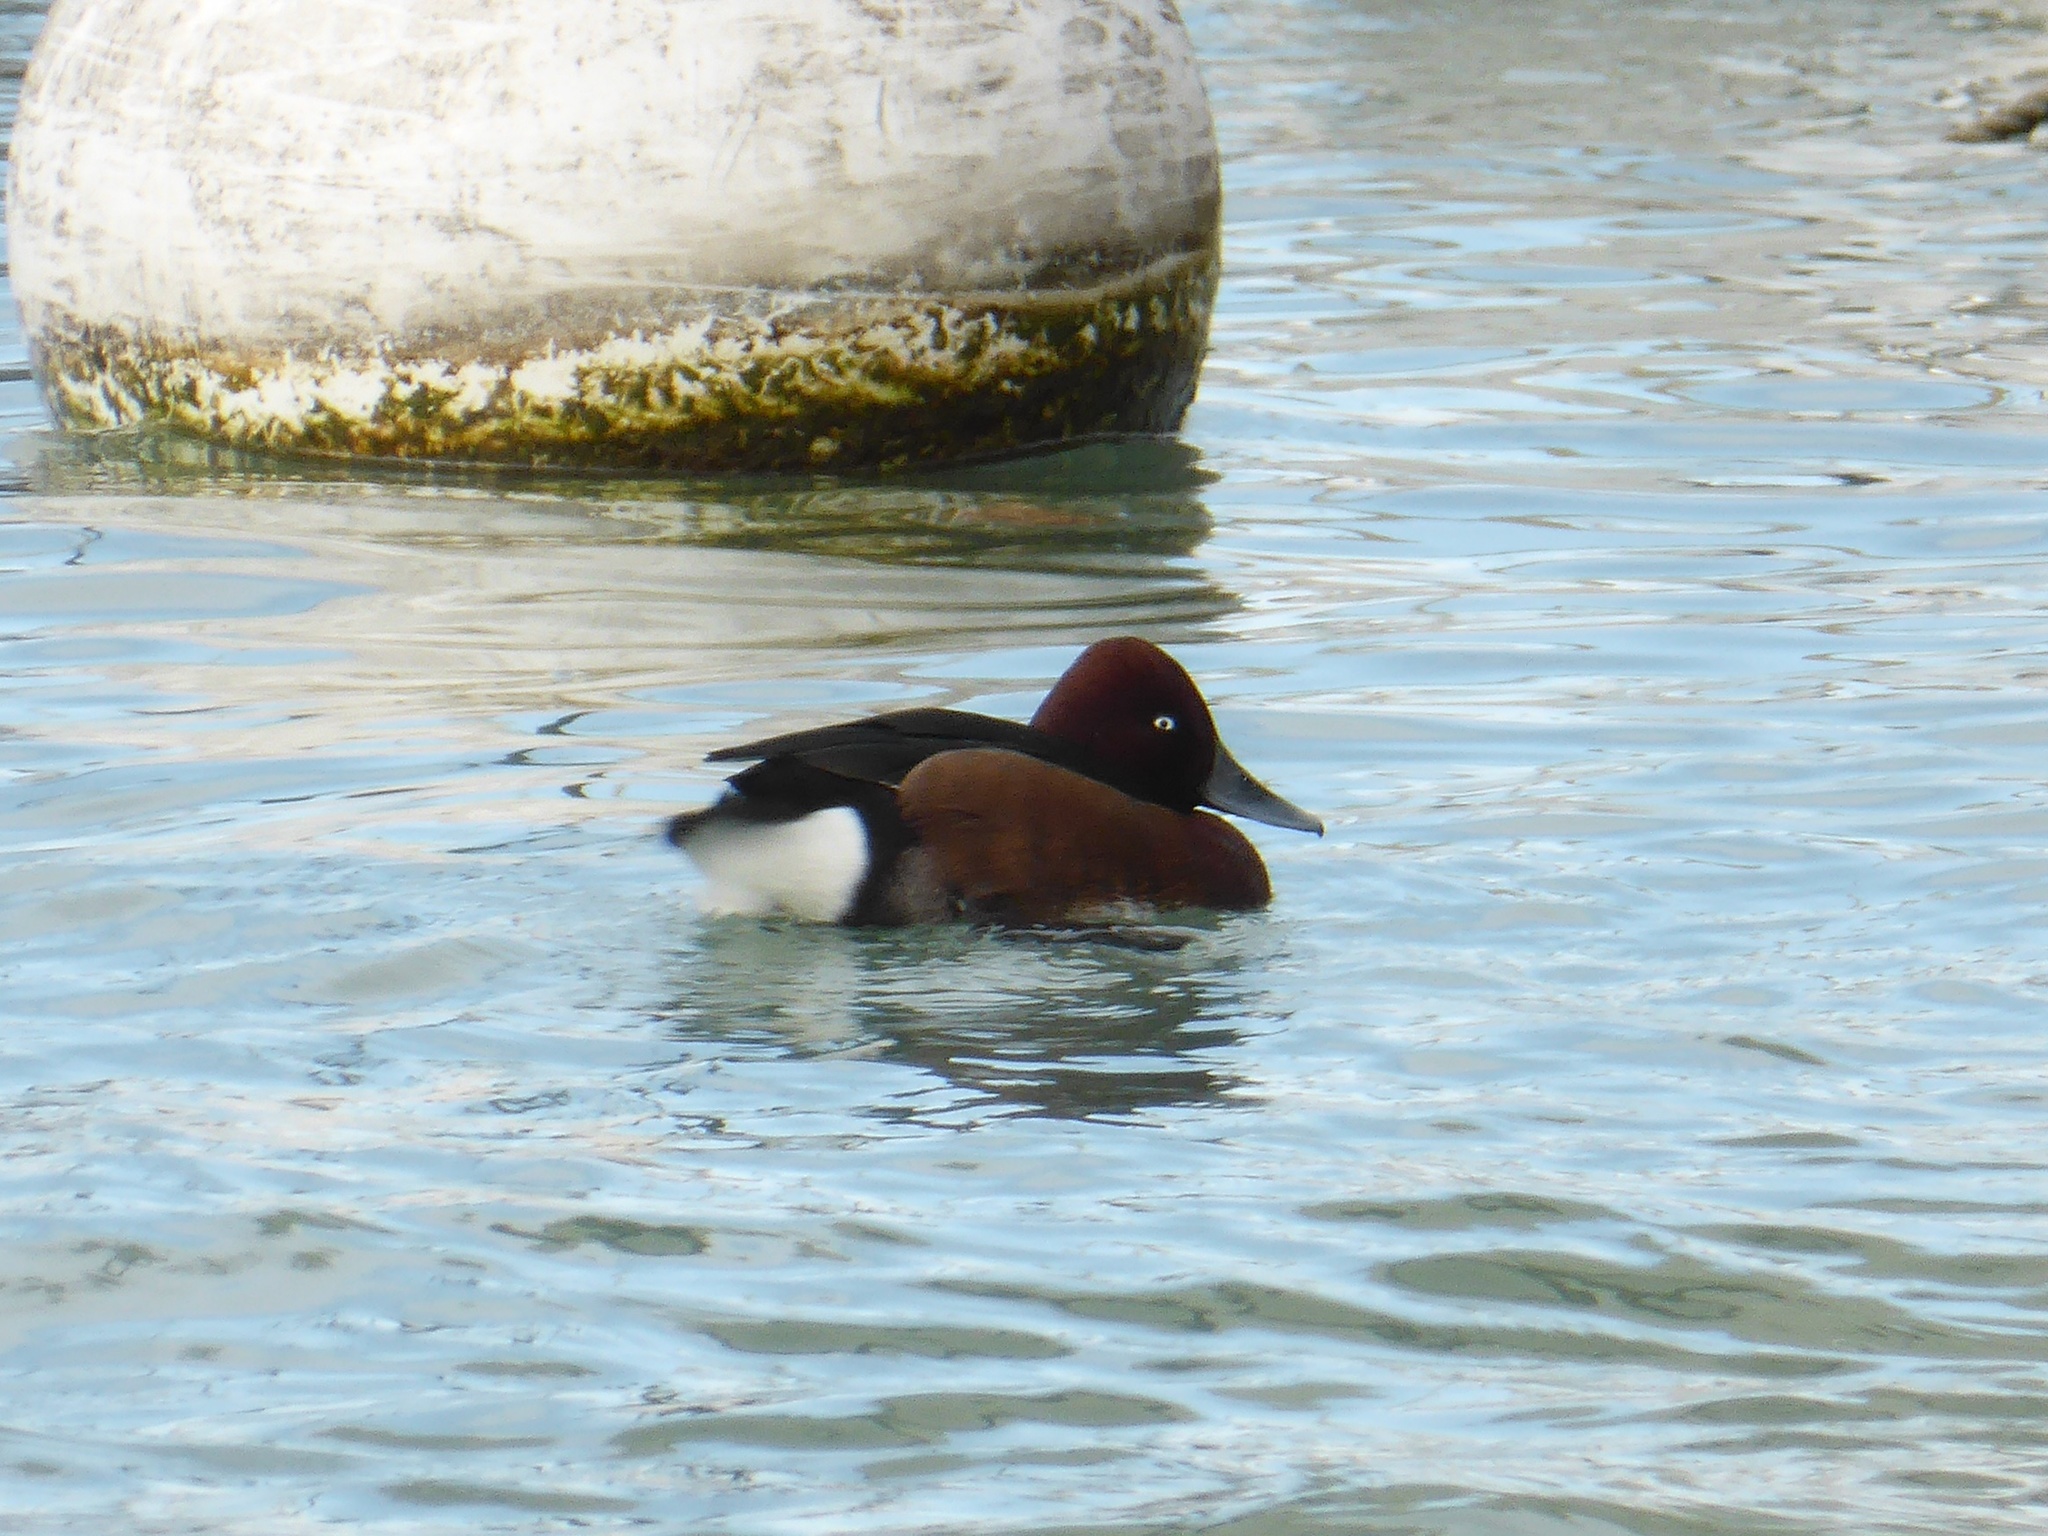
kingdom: Animalia
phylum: Chordata
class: Aves
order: Anseriformes
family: Anatidae
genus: Aythya
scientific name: Aythya nyroca
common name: Ferruginous duck
